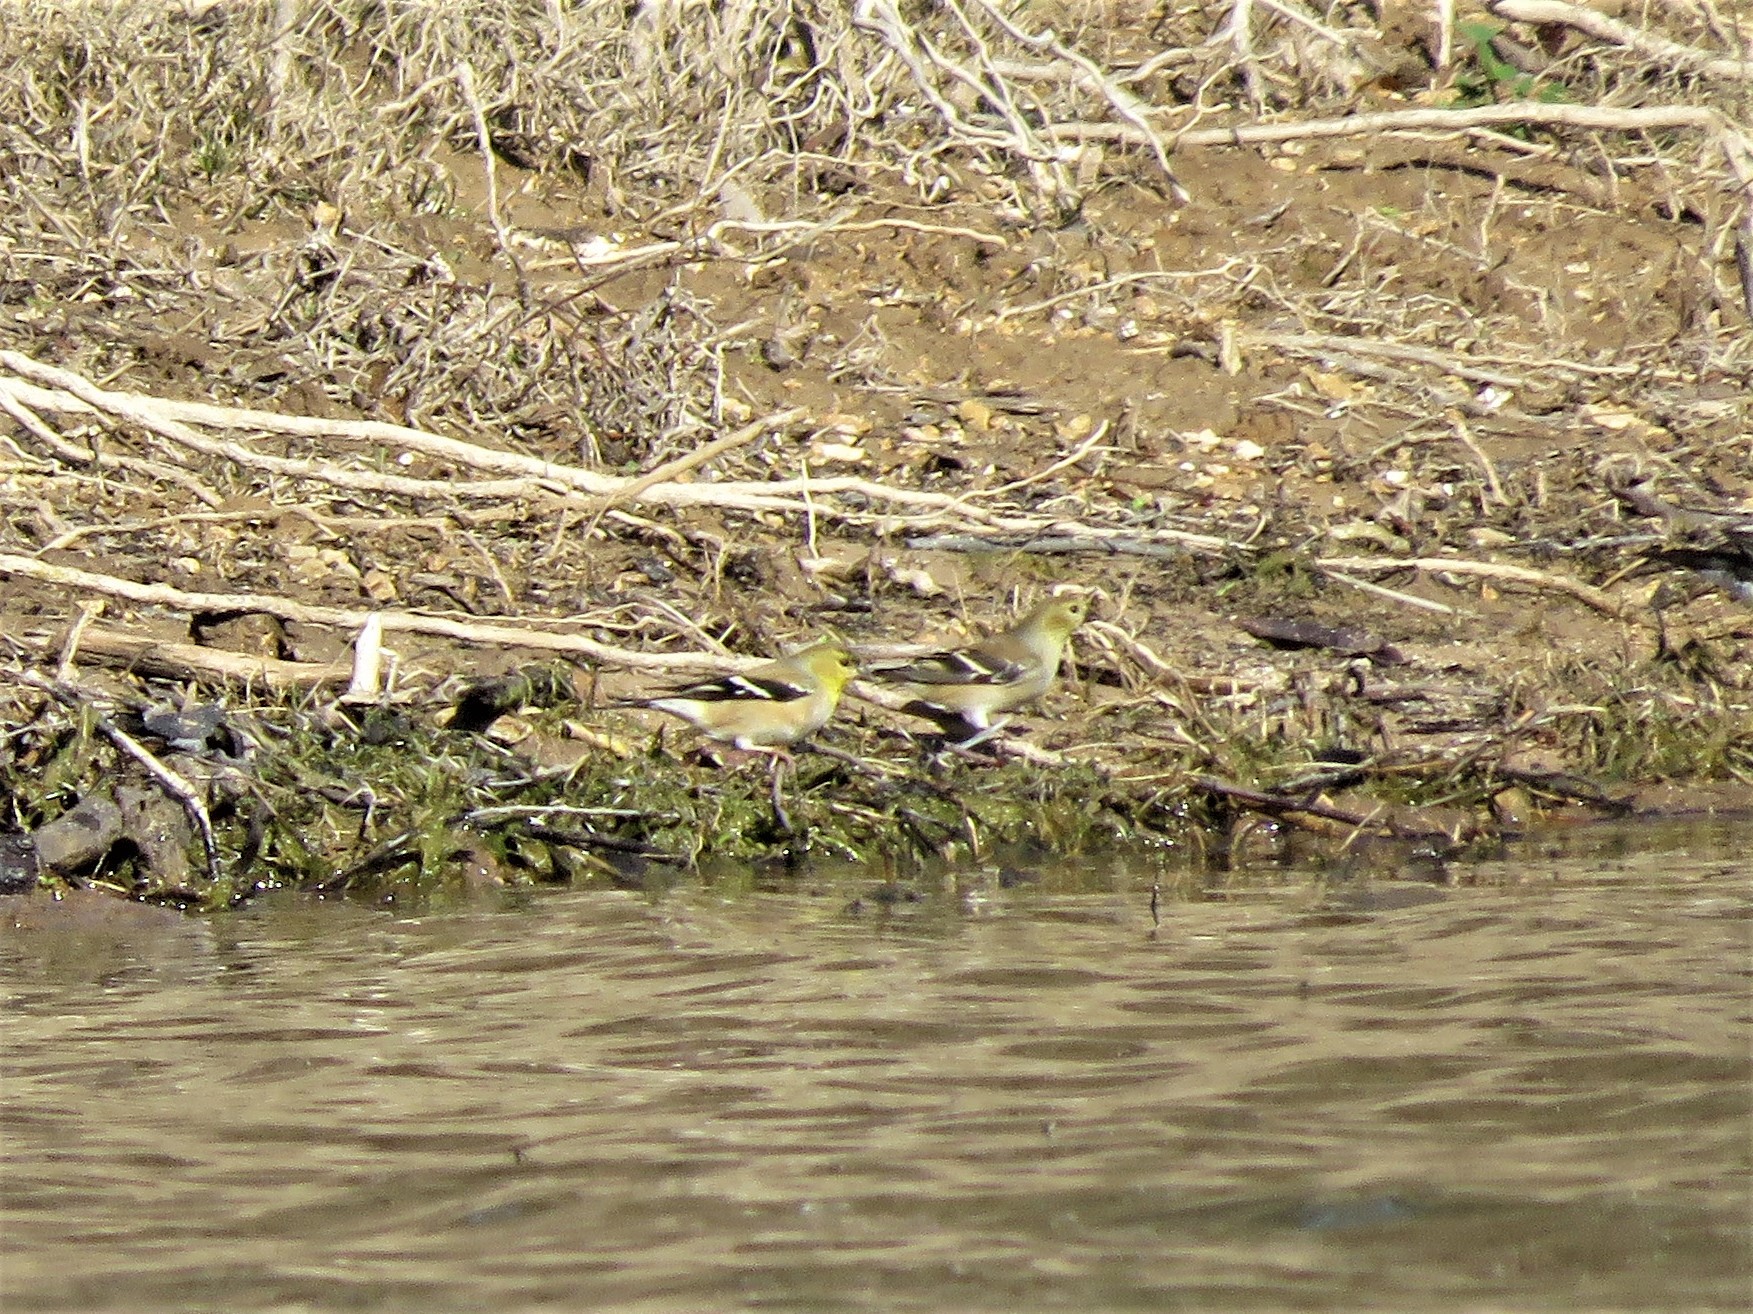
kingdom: Animalia
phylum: Chordata
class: Aves
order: Passeriformes
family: Fringillidae
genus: Spinus
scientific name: Spinus tristis
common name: American goldfinch
